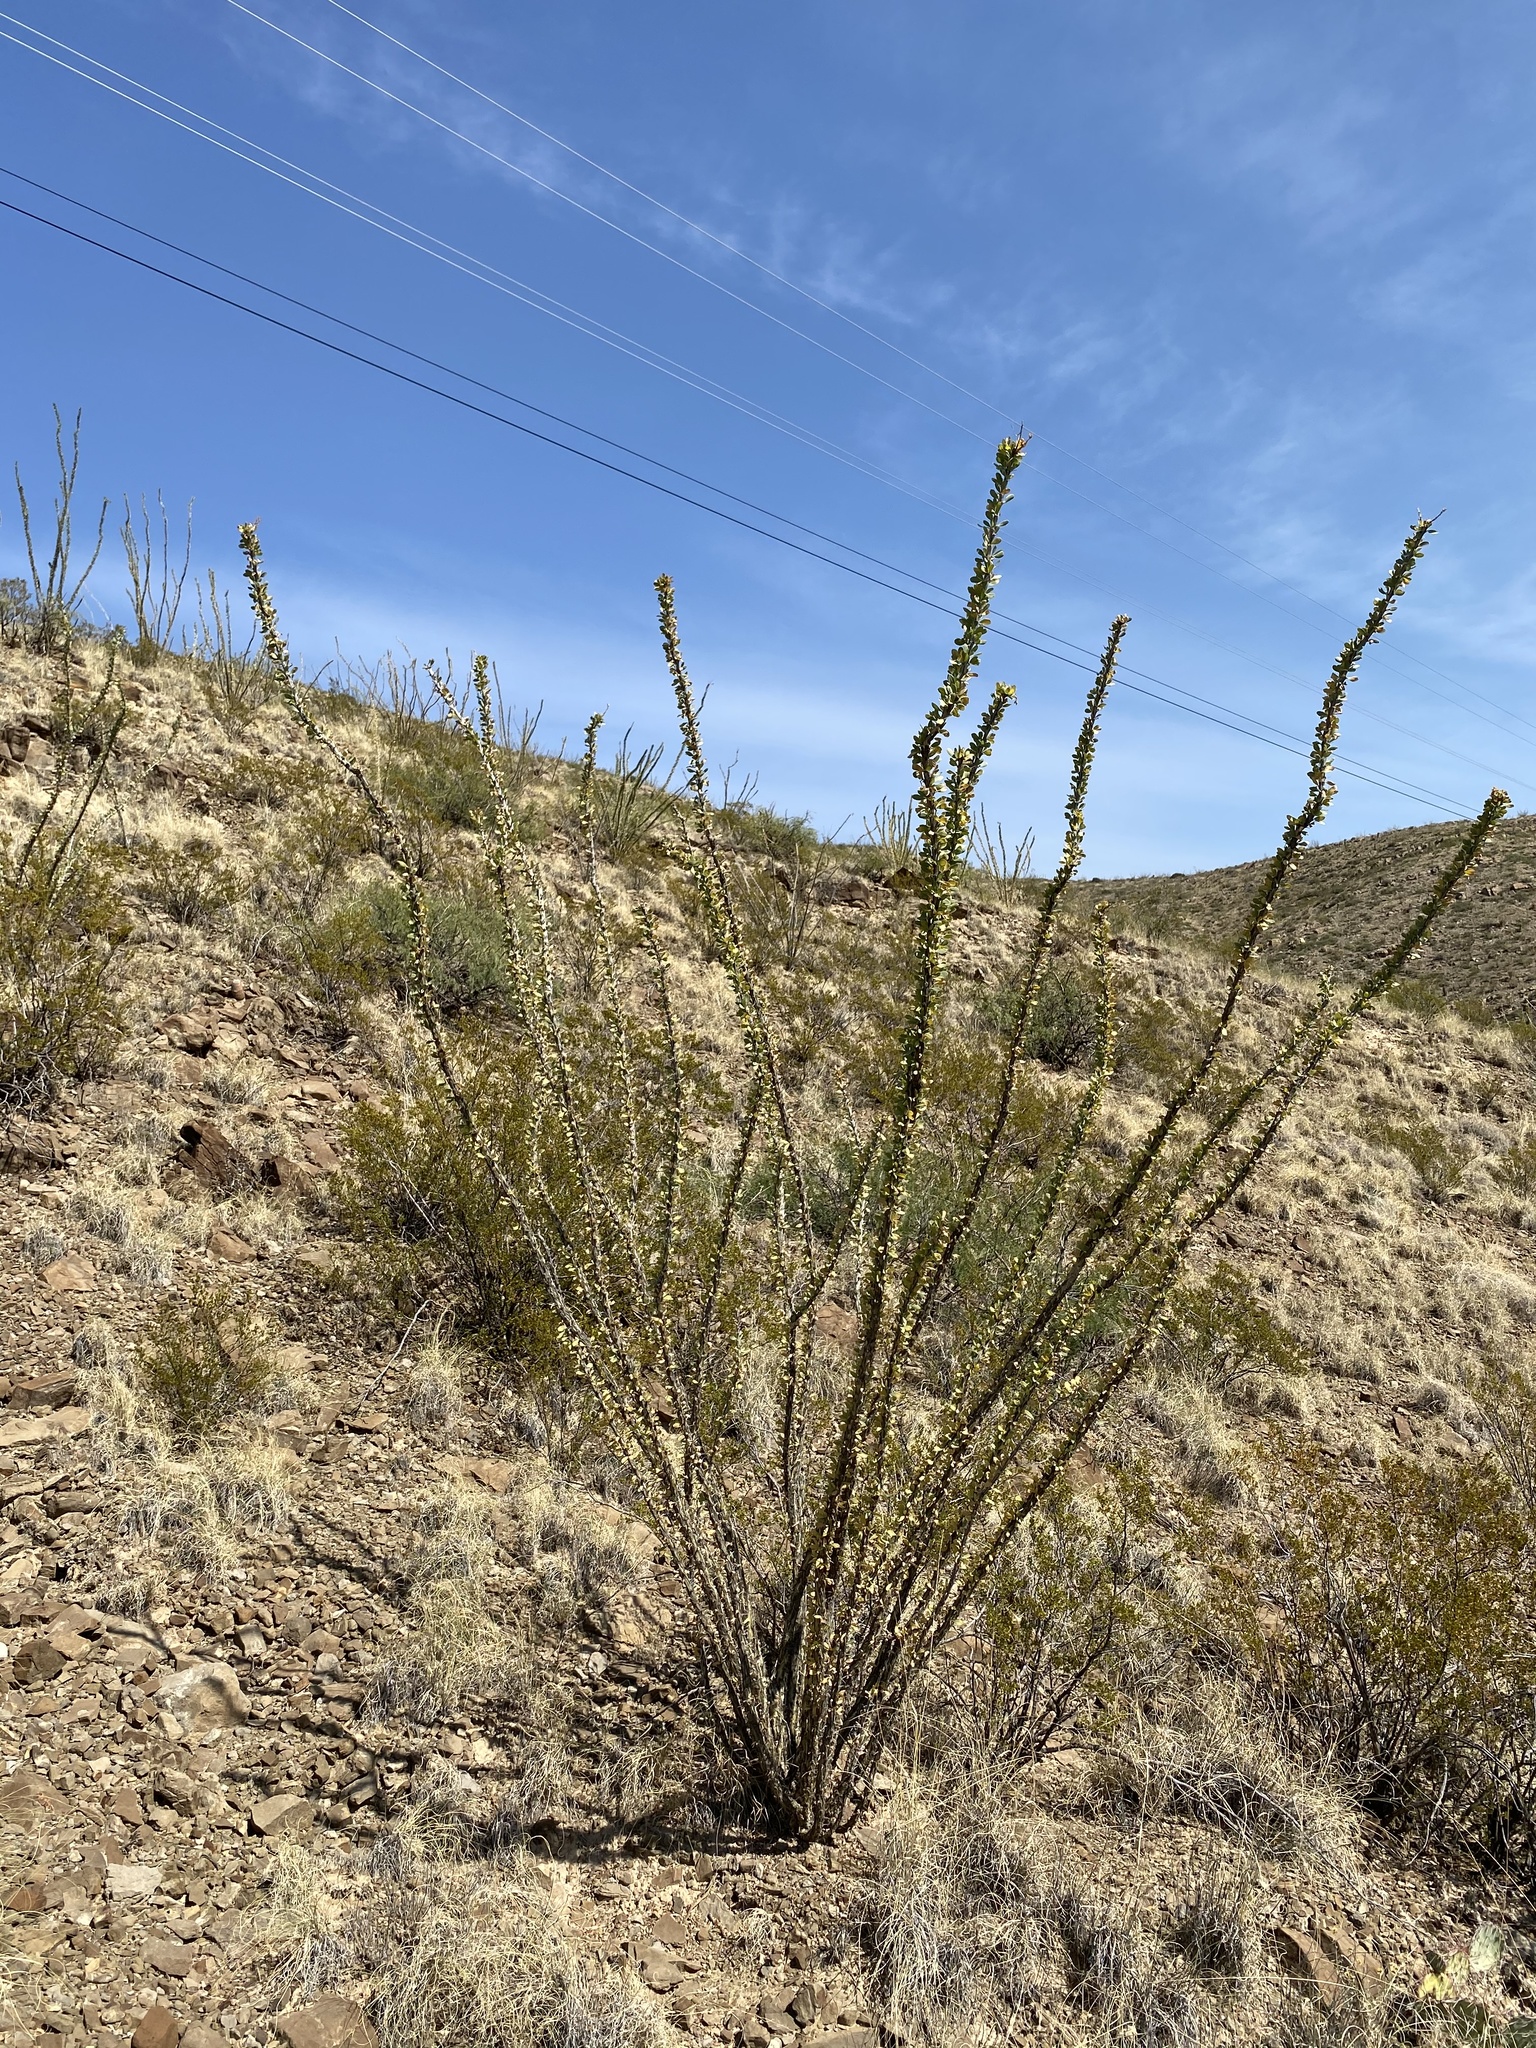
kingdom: Plantae
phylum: Tracheophyta
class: Magnoliopsida
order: Ericales
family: Fouquieriaceae
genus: Fouquieria
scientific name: Fouquieria splendens
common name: Vine-cactus
